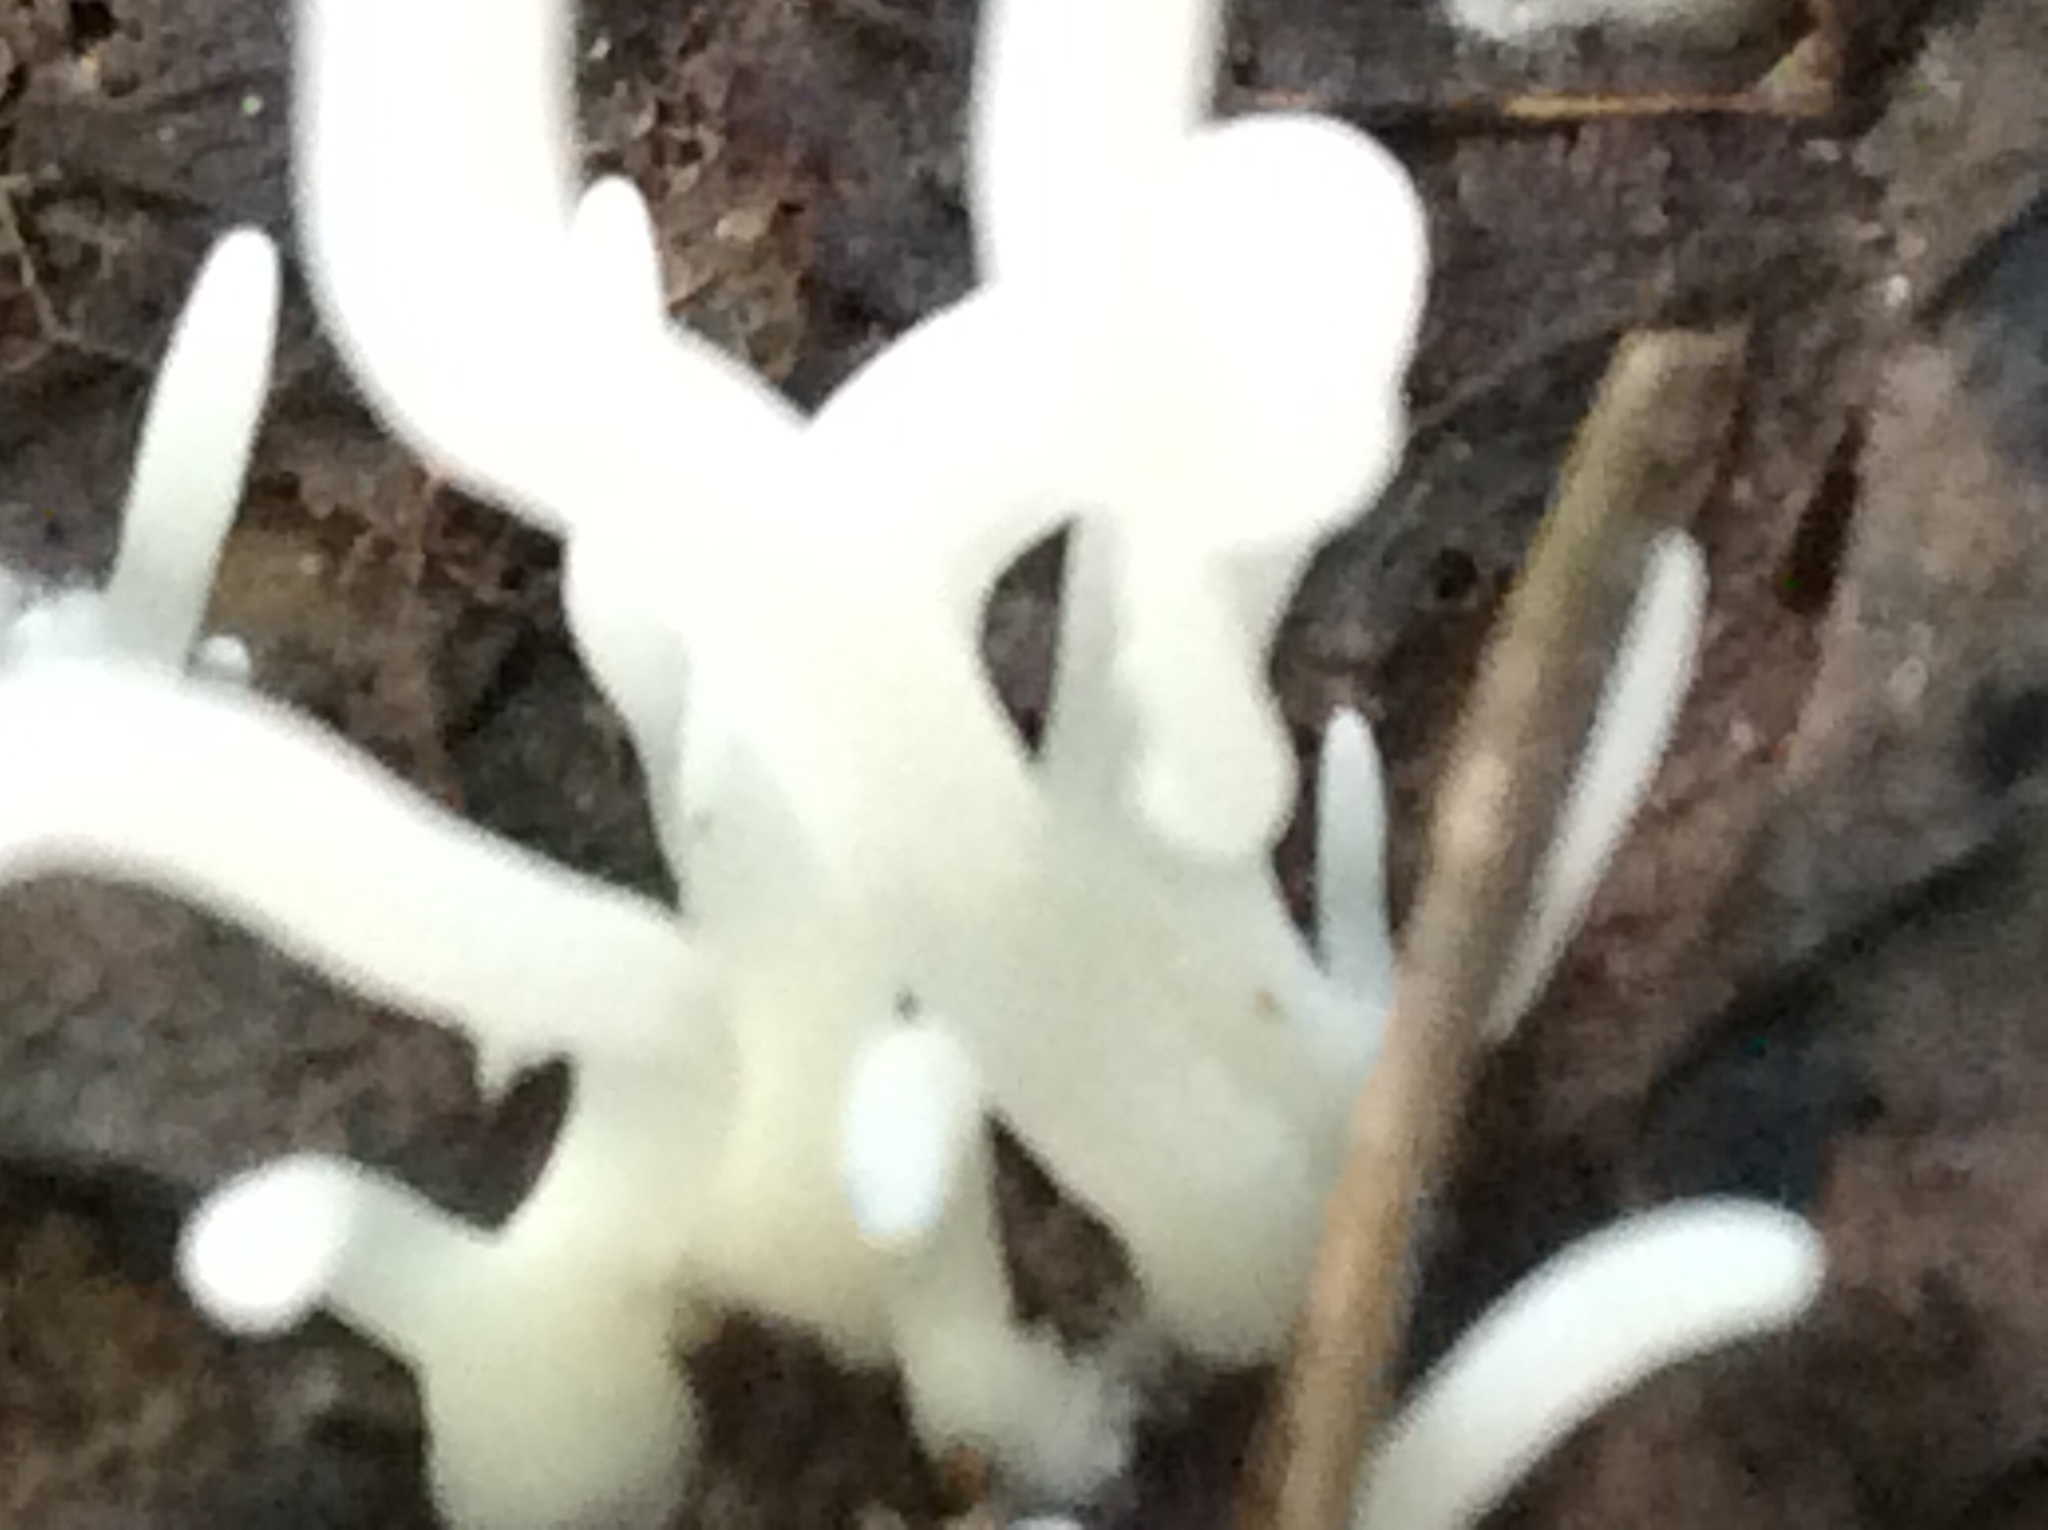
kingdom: Fungi
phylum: Basidiomycota
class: Agaricomycetes
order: Agaricales
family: Clavariaceae
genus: Clavaria
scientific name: Clavaria fragilis
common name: White spindles
